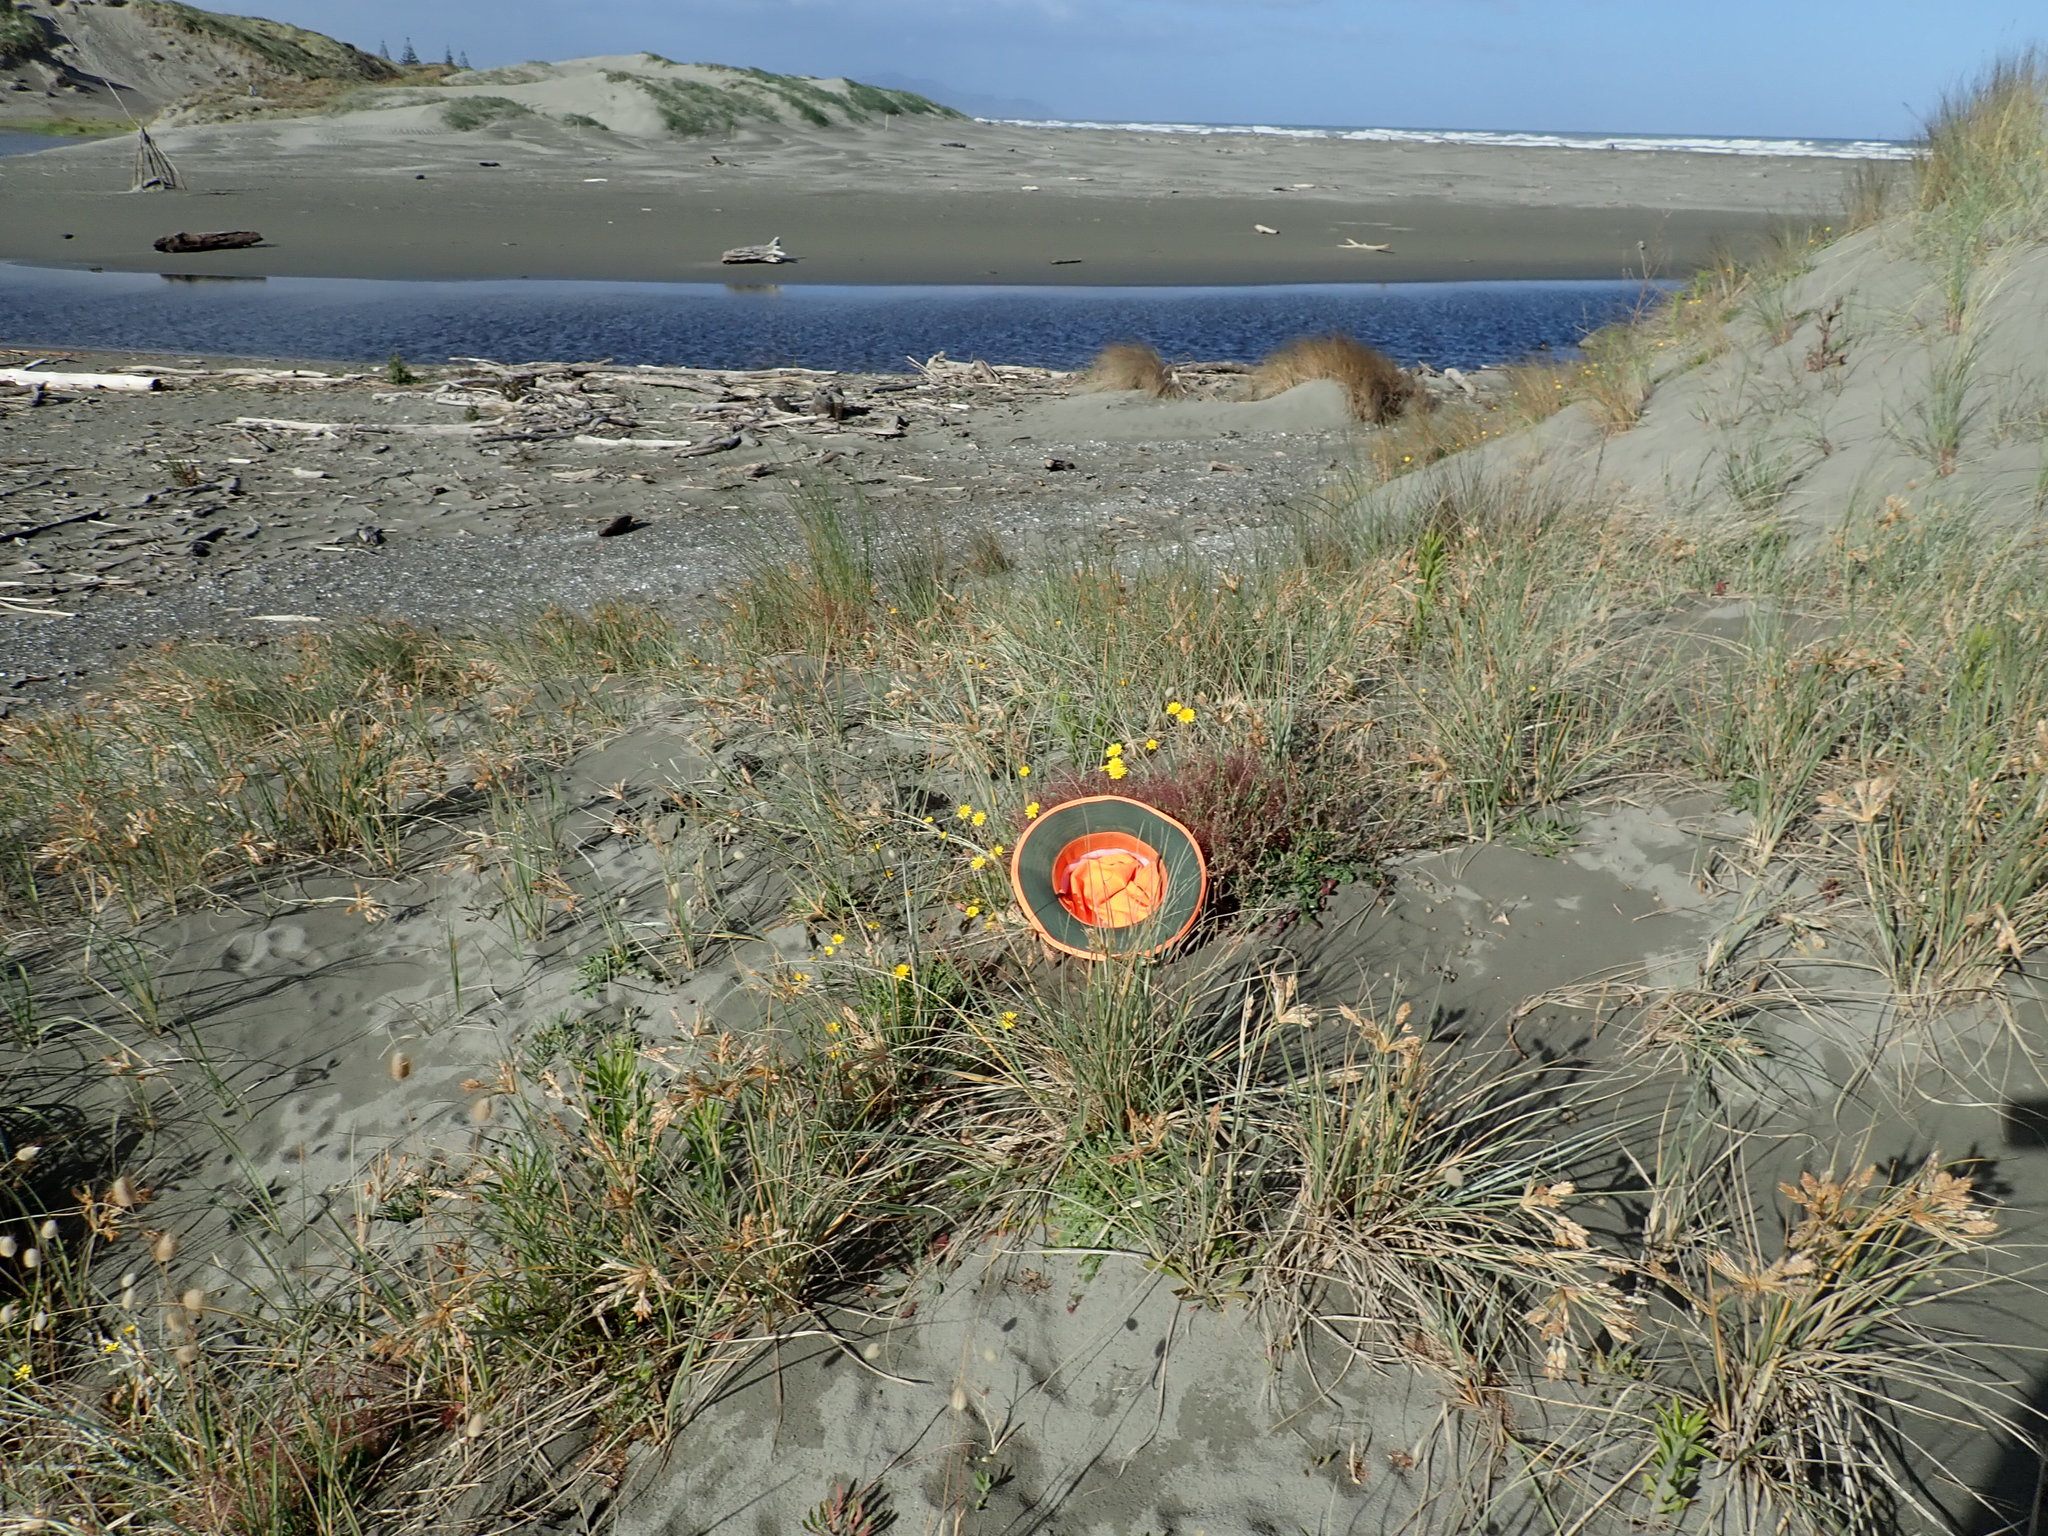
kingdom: Plantae
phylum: Tracheophyta
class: Liliopsida
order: Poales
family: Poaceae
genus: Lachnagrostis
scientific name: Lachnagrostis billardierei
